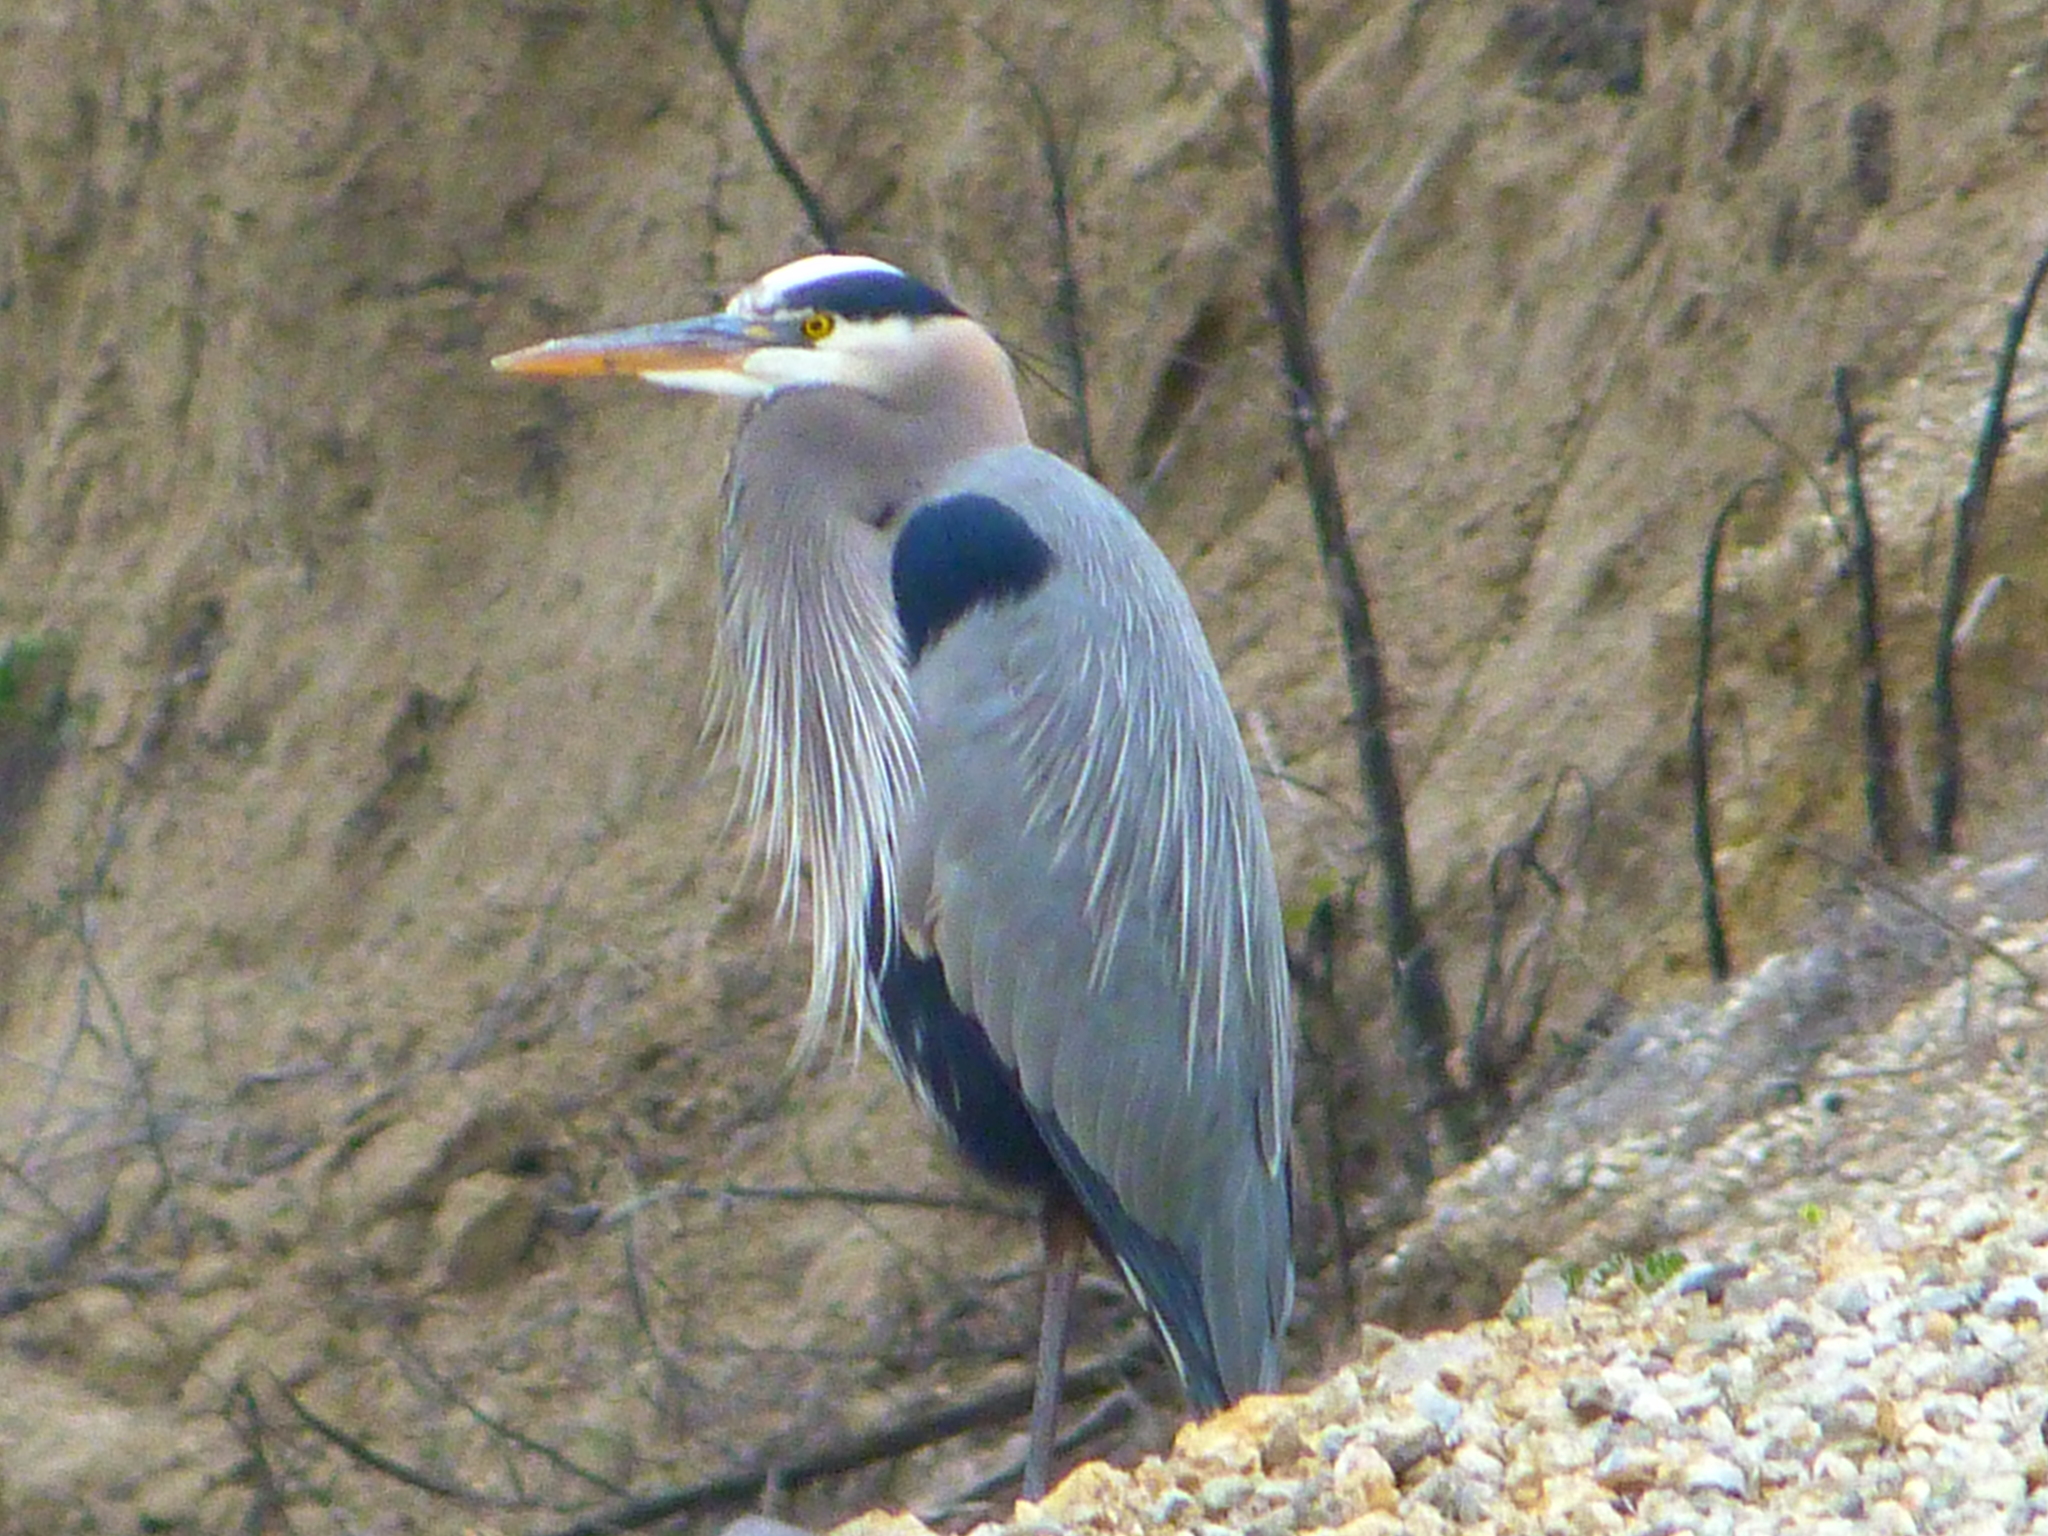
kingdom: Animalia
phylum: Chordata
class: Aves
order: Pelecaniformes
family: Ardeidae
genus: Ardea
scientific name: Ardea herodias
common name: Great blue heron
